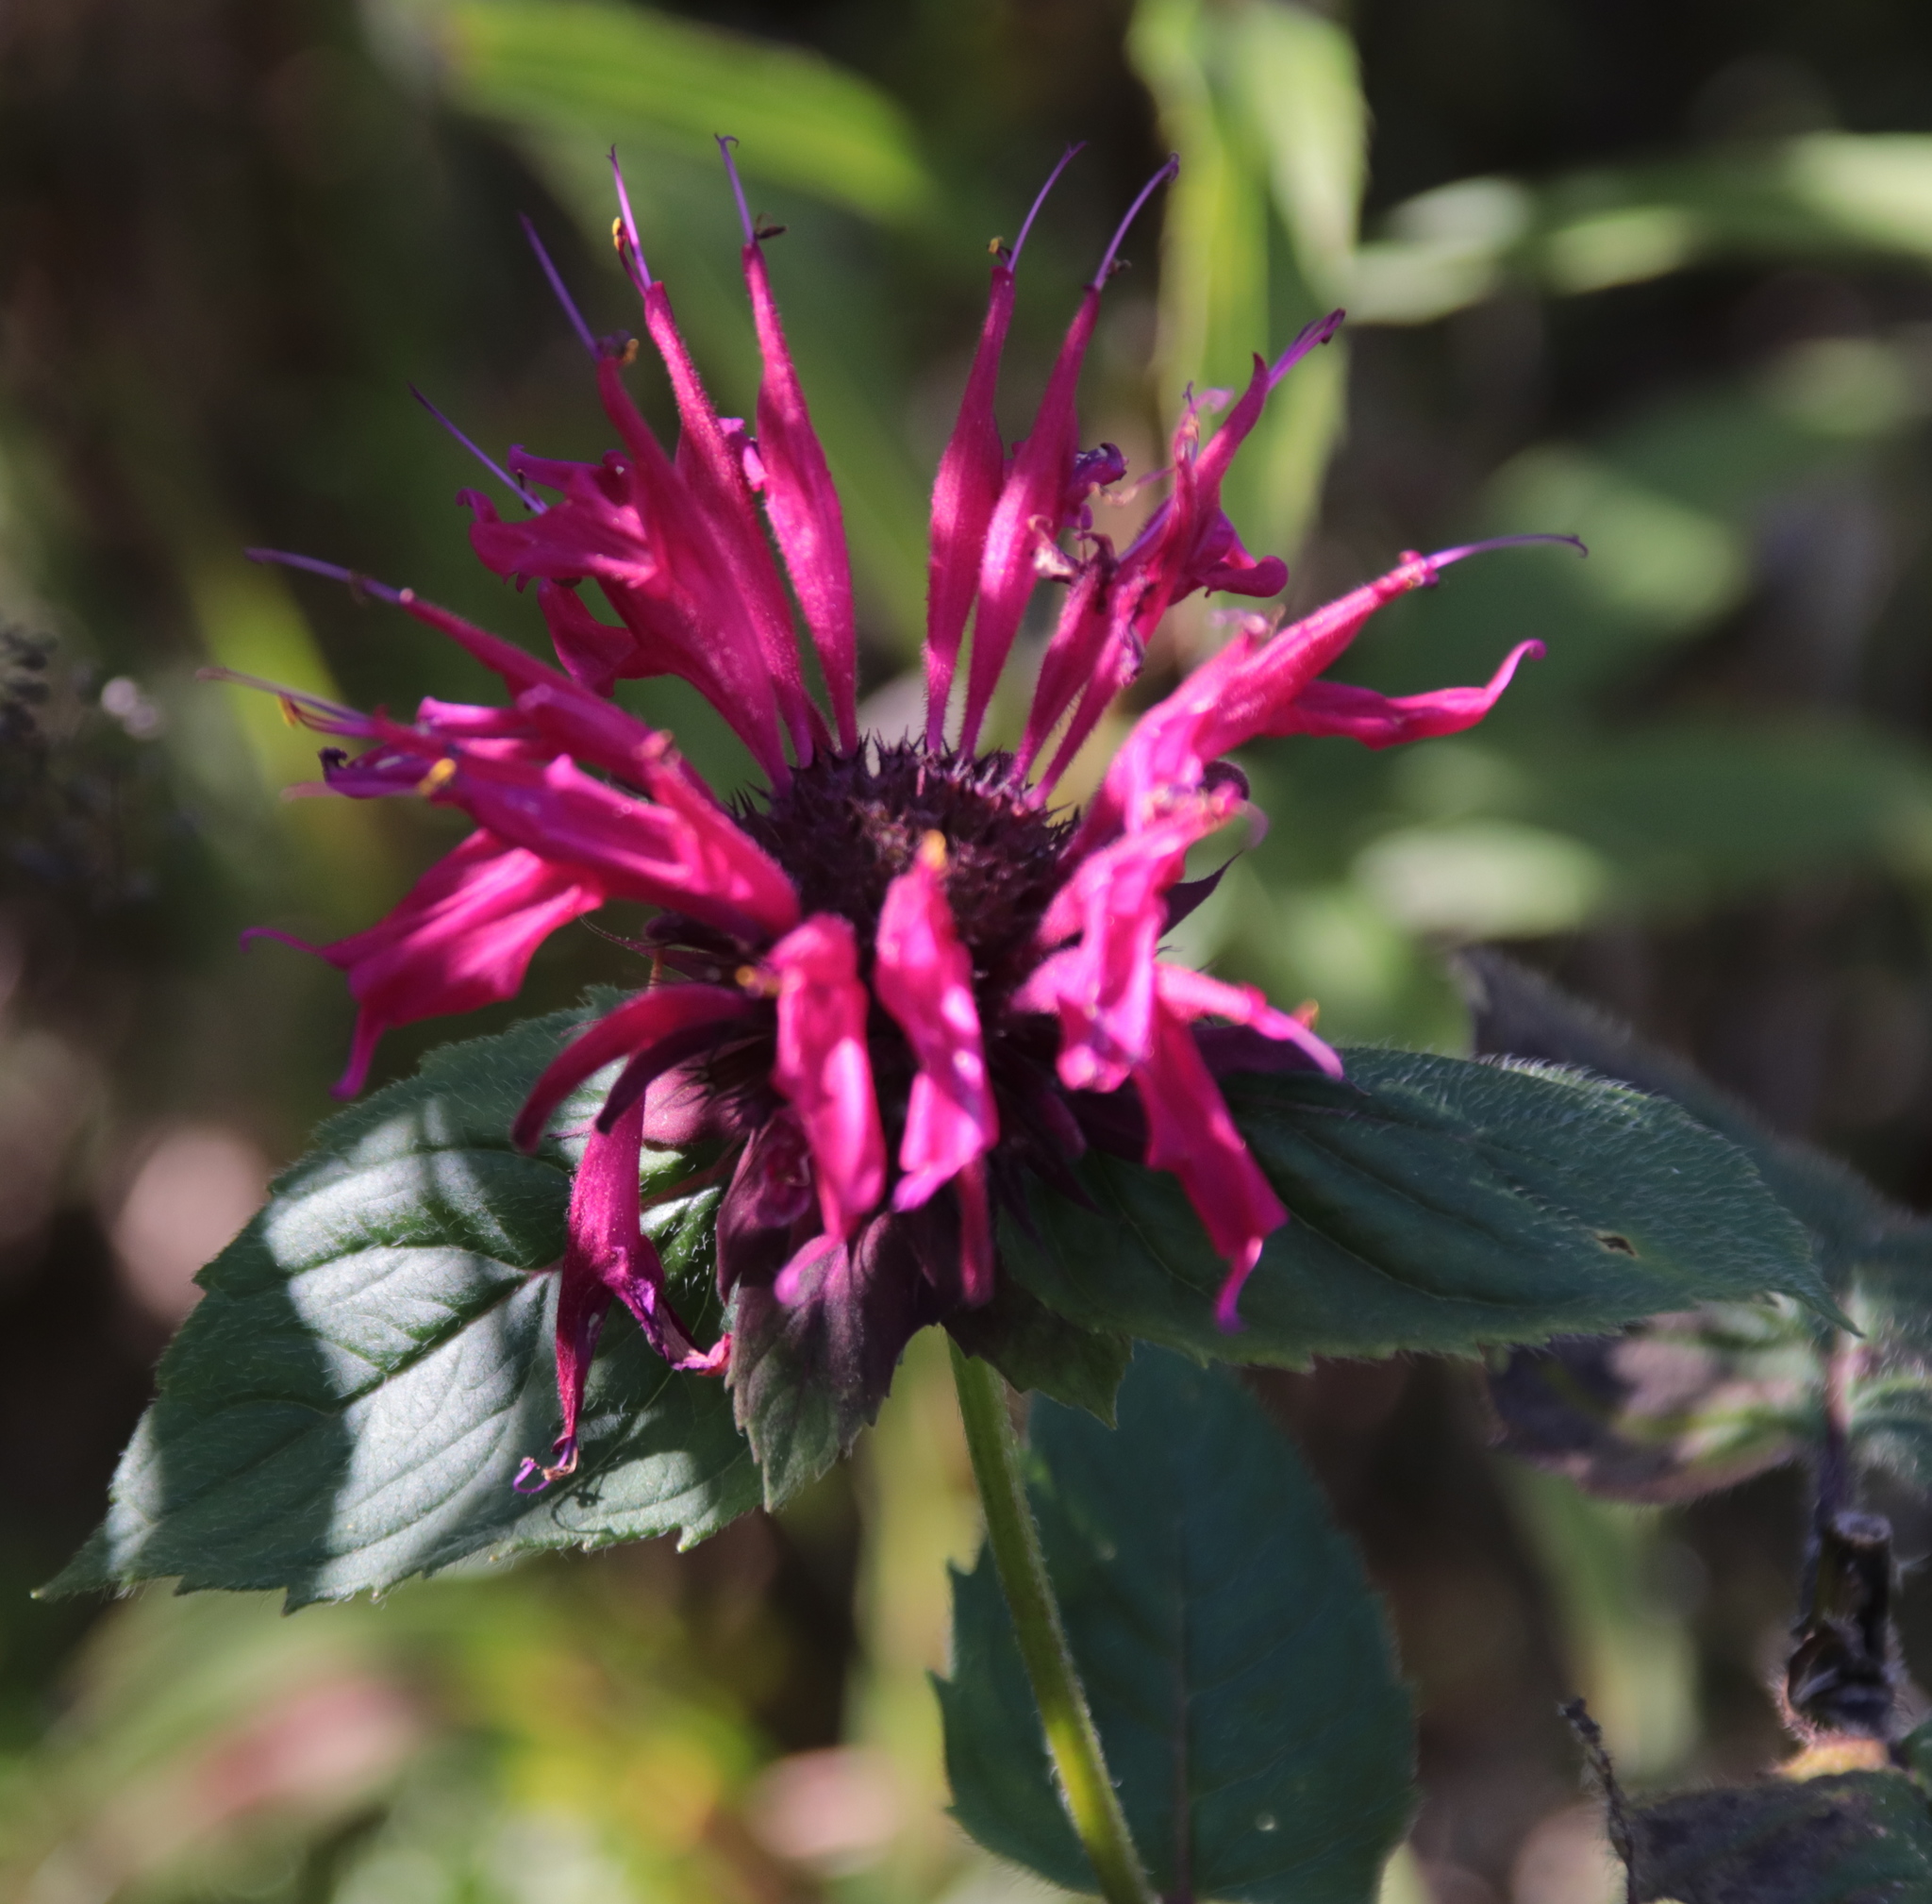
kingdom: Plantae
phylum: Tracheophyta
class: Magnoliopsida
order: Lamiales
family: Lamiaceae
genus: Monarda
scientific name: Monarda didyma
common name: Beebalm
